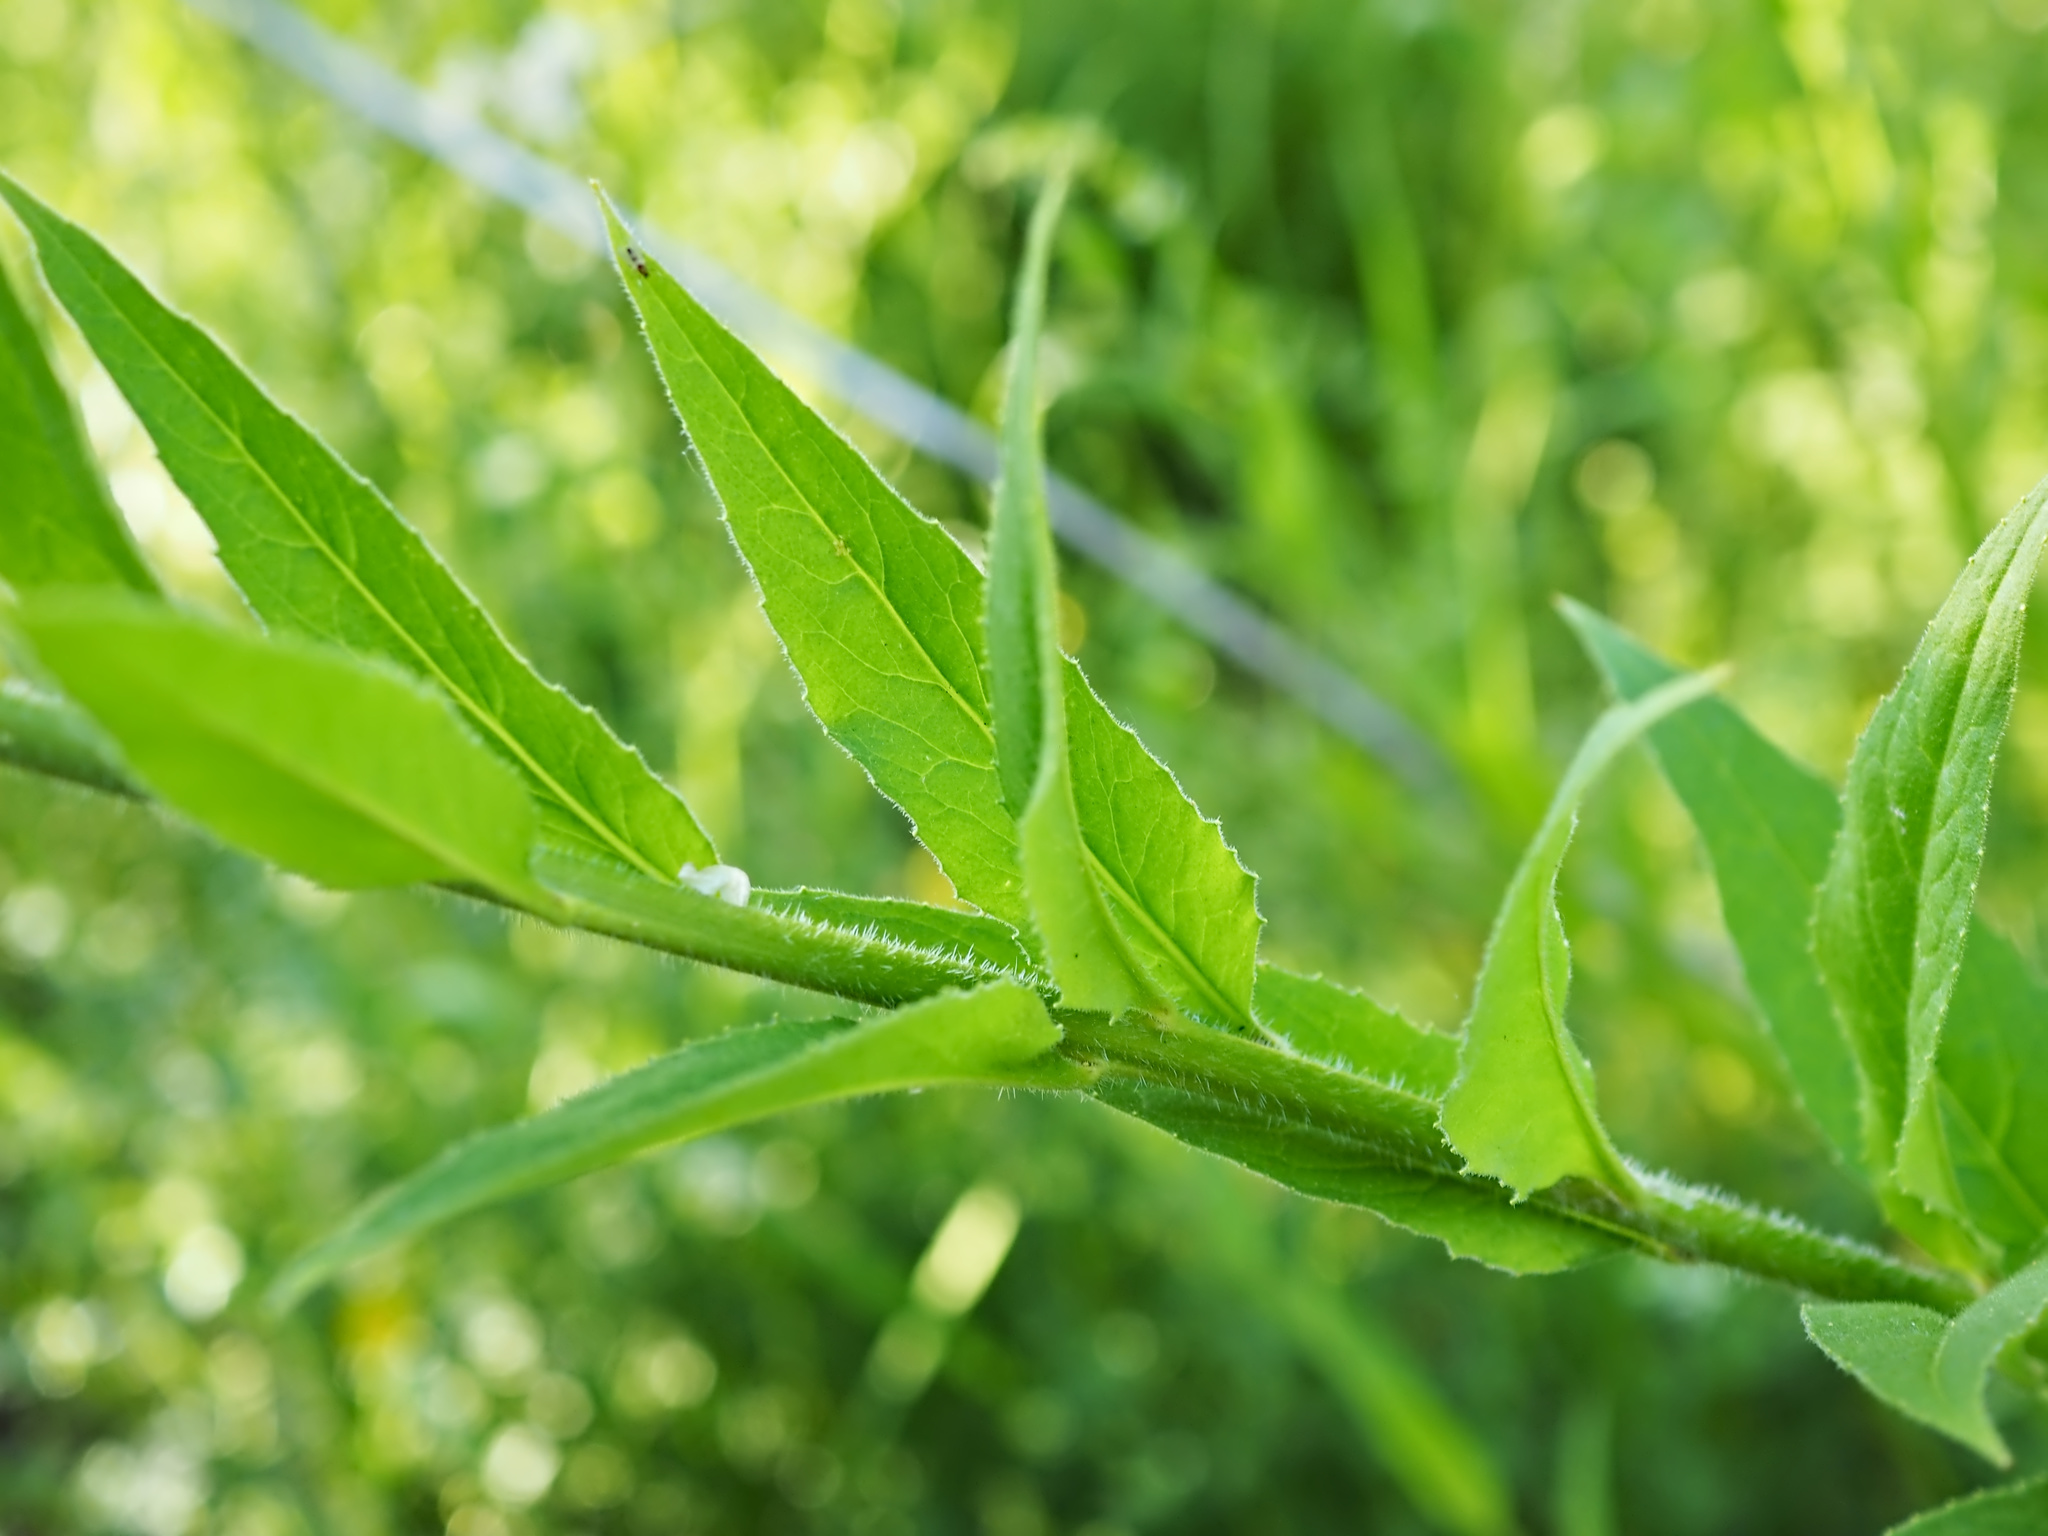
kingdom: Plantae
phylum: Tracheophyta
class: Magnoliopsida
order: Brassicales
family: Brassicaceae
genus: Hesperis
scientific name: Hesperis matronalis
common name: Dame's-violet
